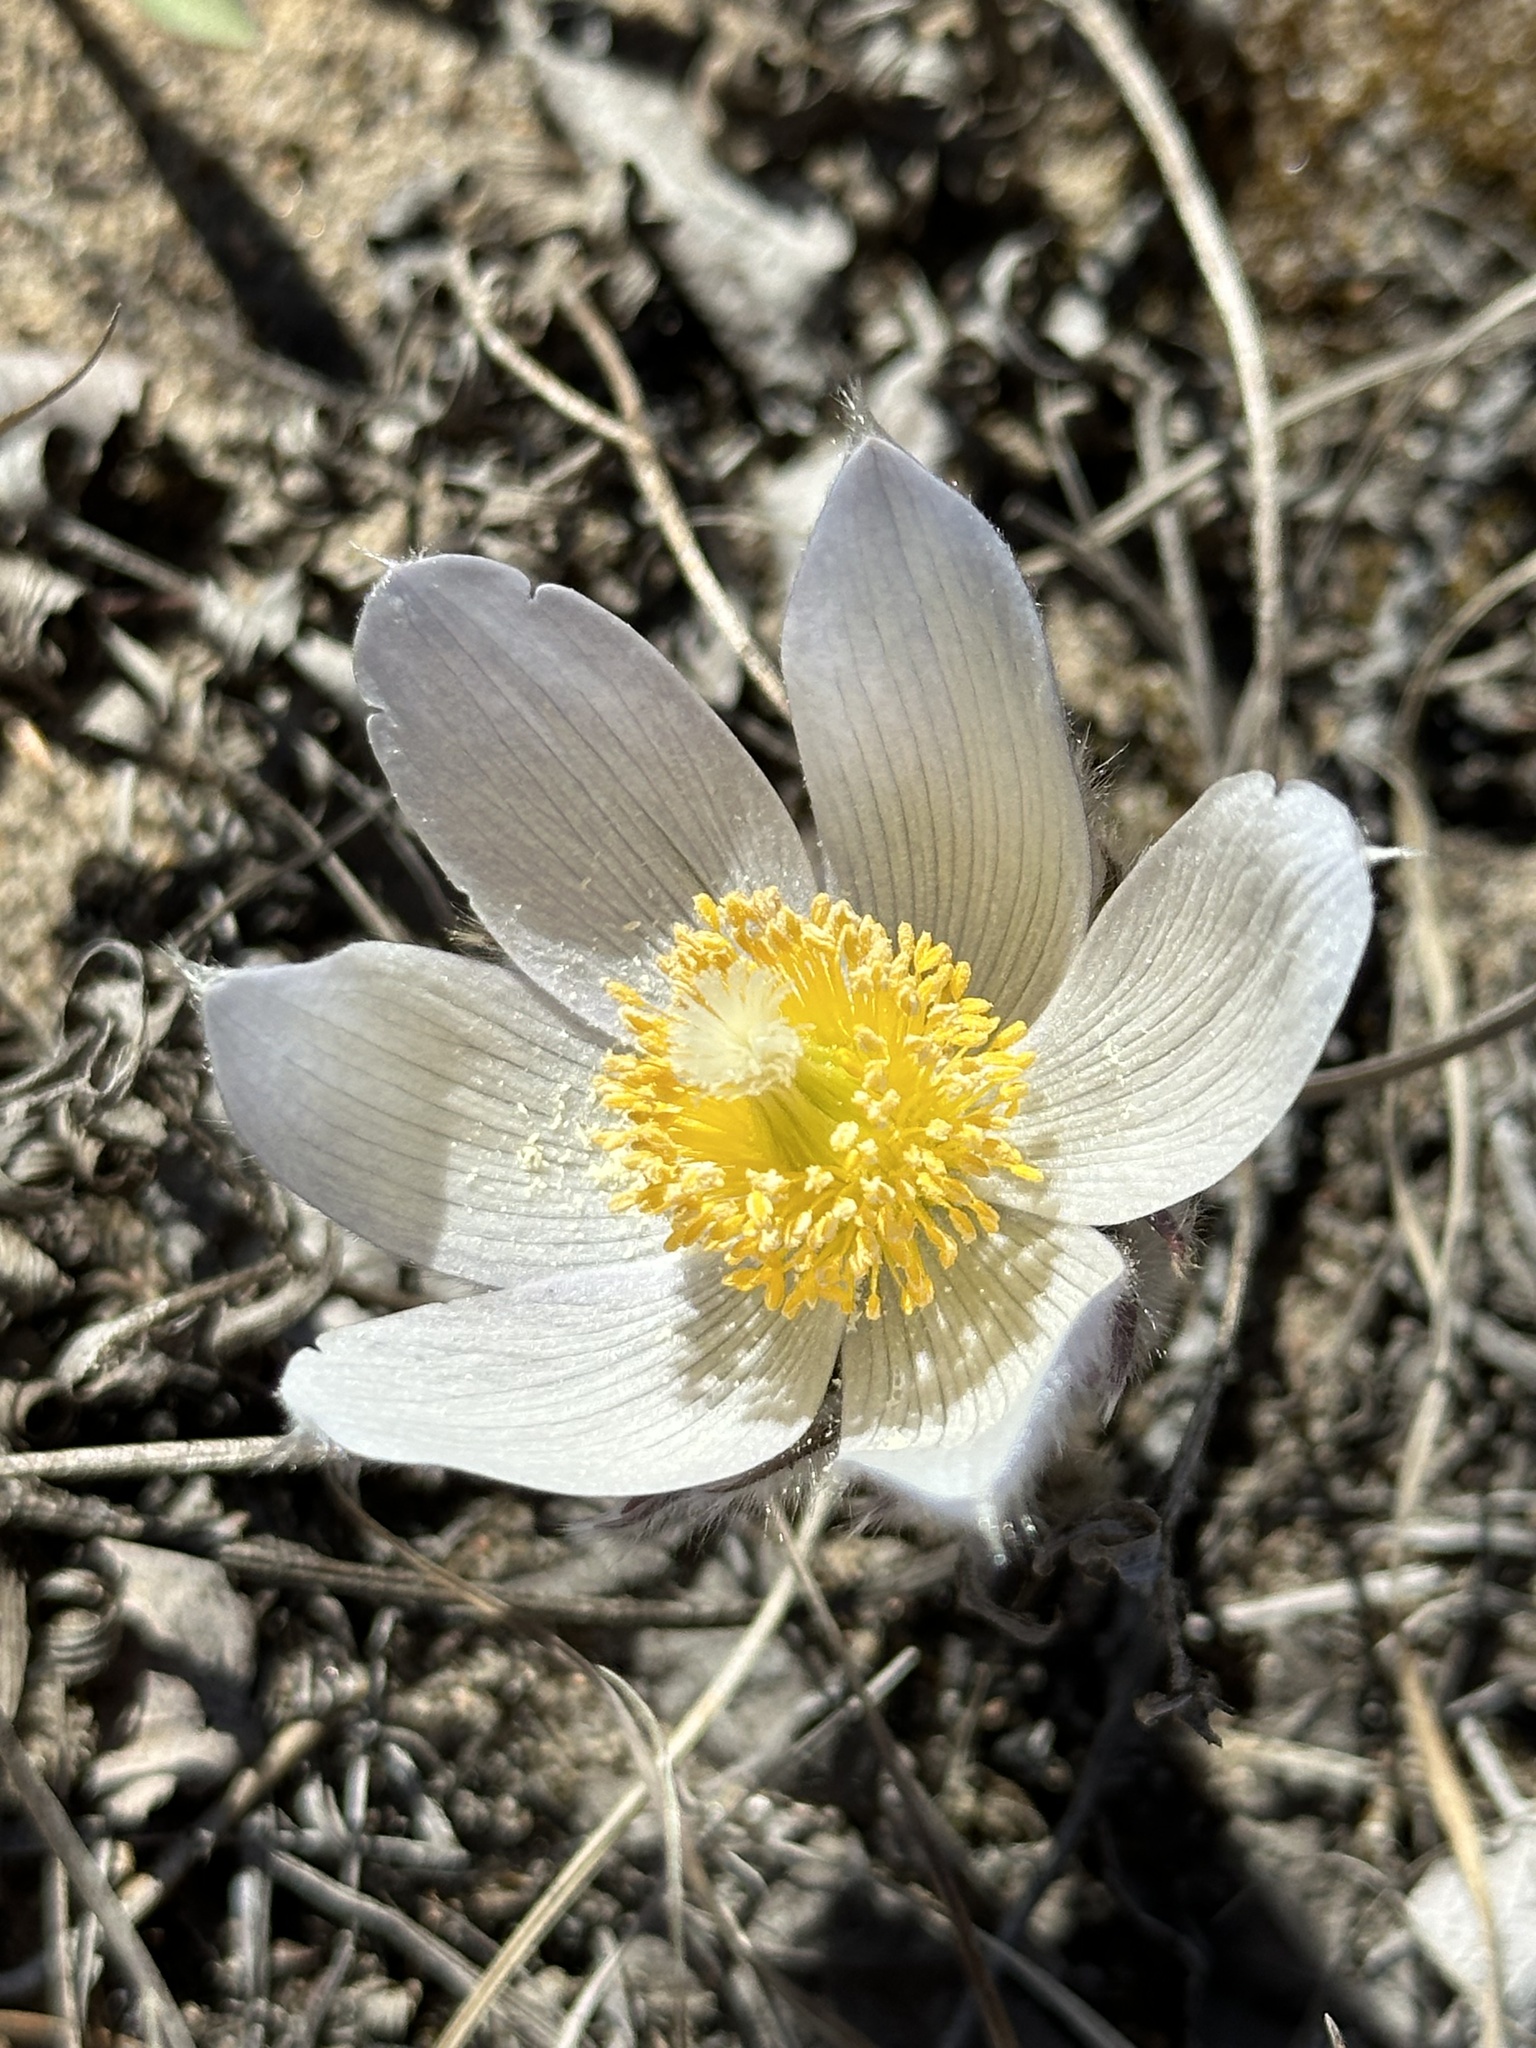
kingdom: Plantae
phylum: Tracheophyta
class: Magnoliopsida
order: Ranunculales
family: Ranunculaceae
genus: Pulsatilla
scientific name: Pulsatilla nuttalliana
